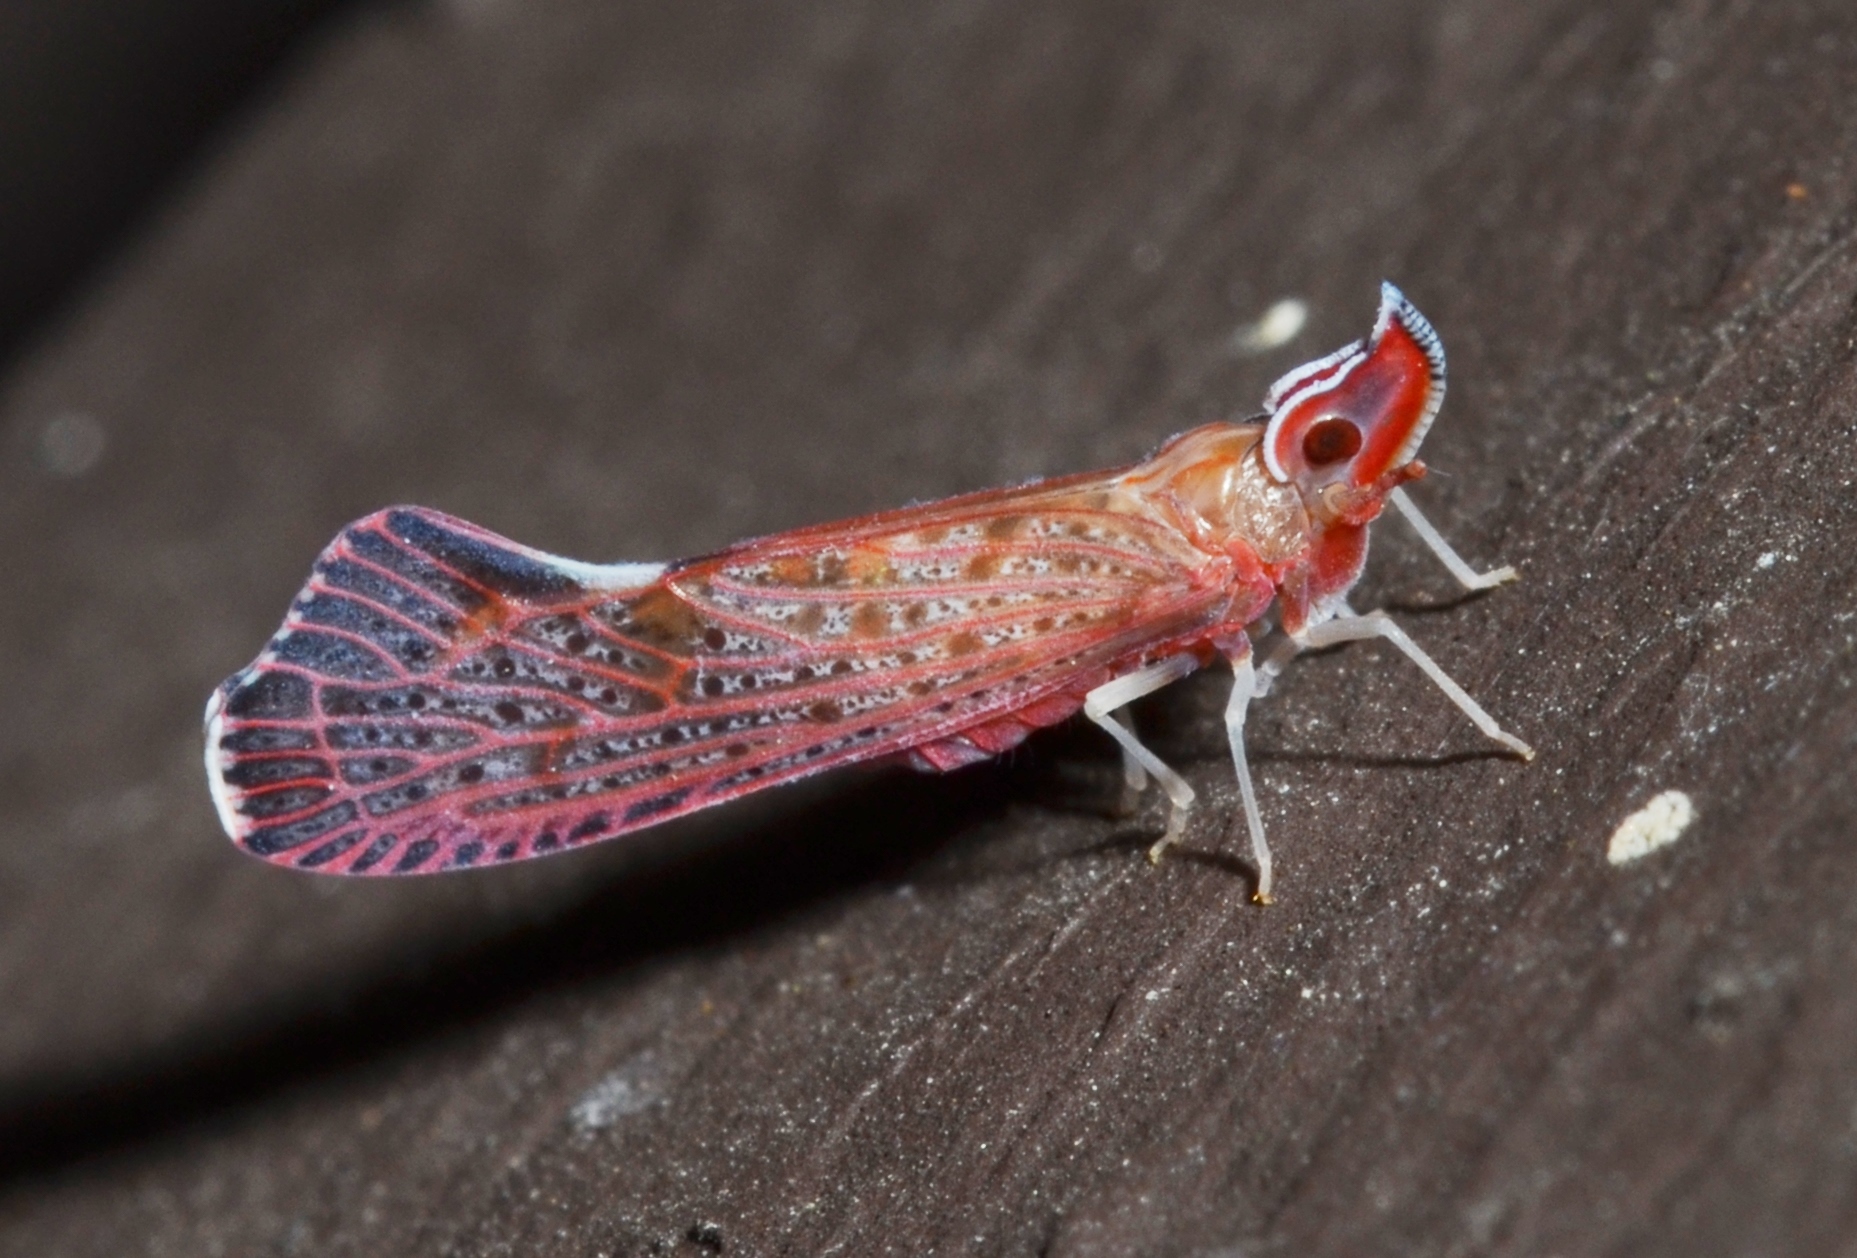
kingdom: Animalia
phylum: Arthropoda
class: Insecta
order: Hemiptera
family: Derbidae
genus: Apache
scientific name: Apache degeeri
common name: Red-fanned planthopper
